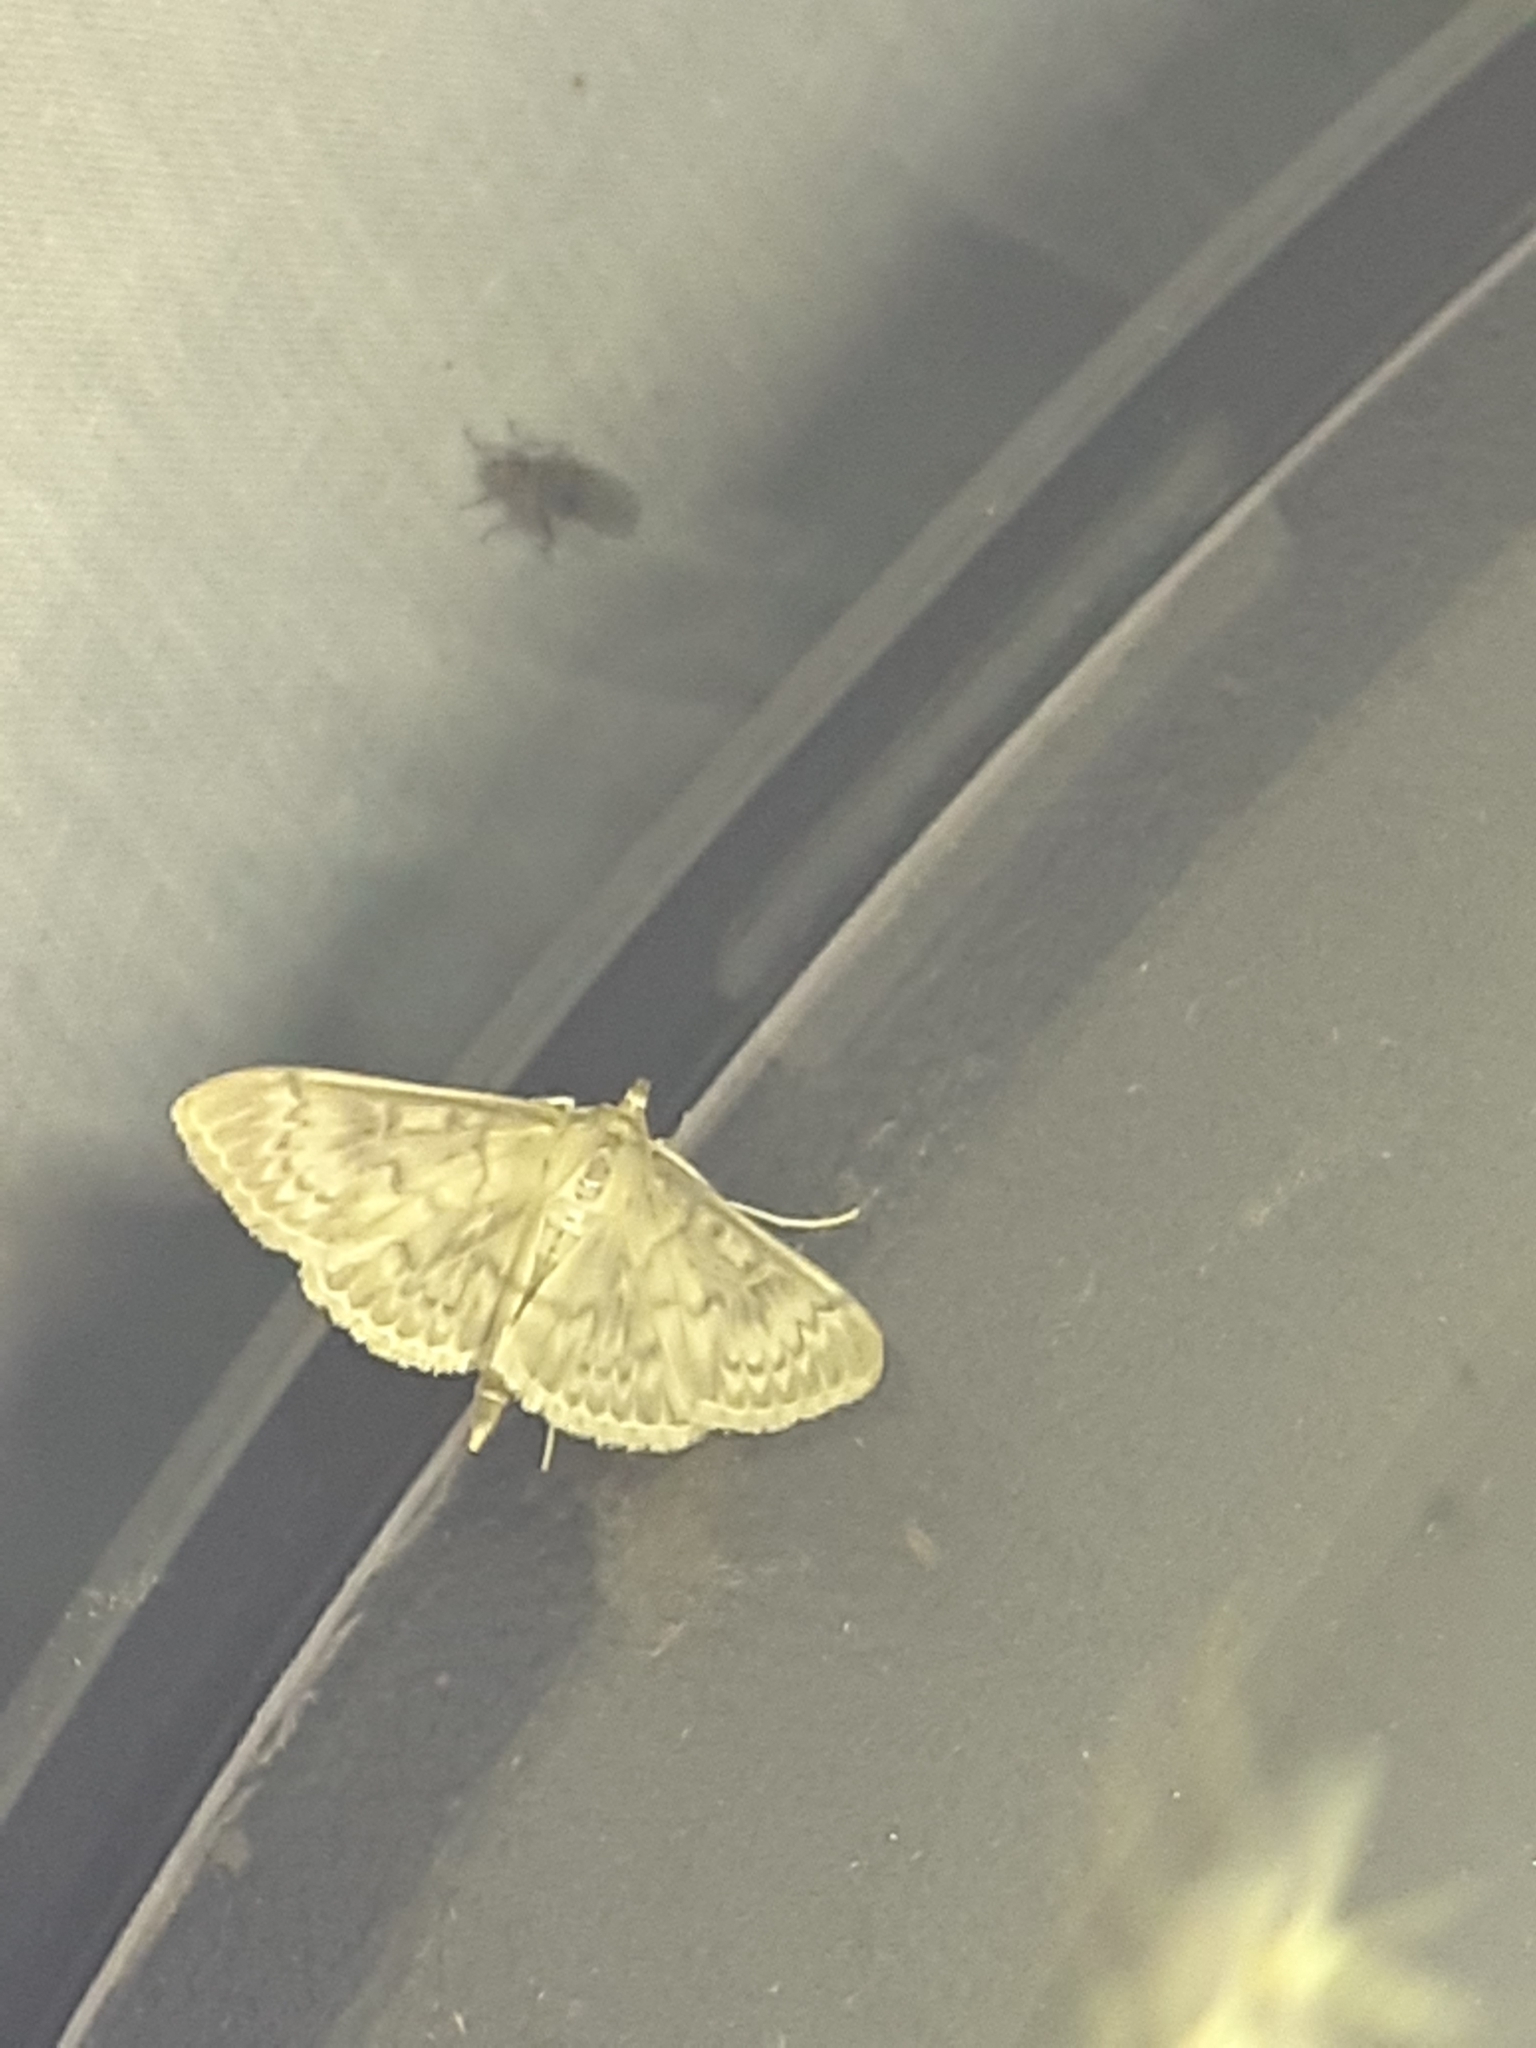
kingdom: Animalia
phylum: Arthropoda
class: Insecta
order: Lepidoptera
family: Crambidae
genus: Patania
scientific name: Patania ruralis
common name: Mother of pearl
